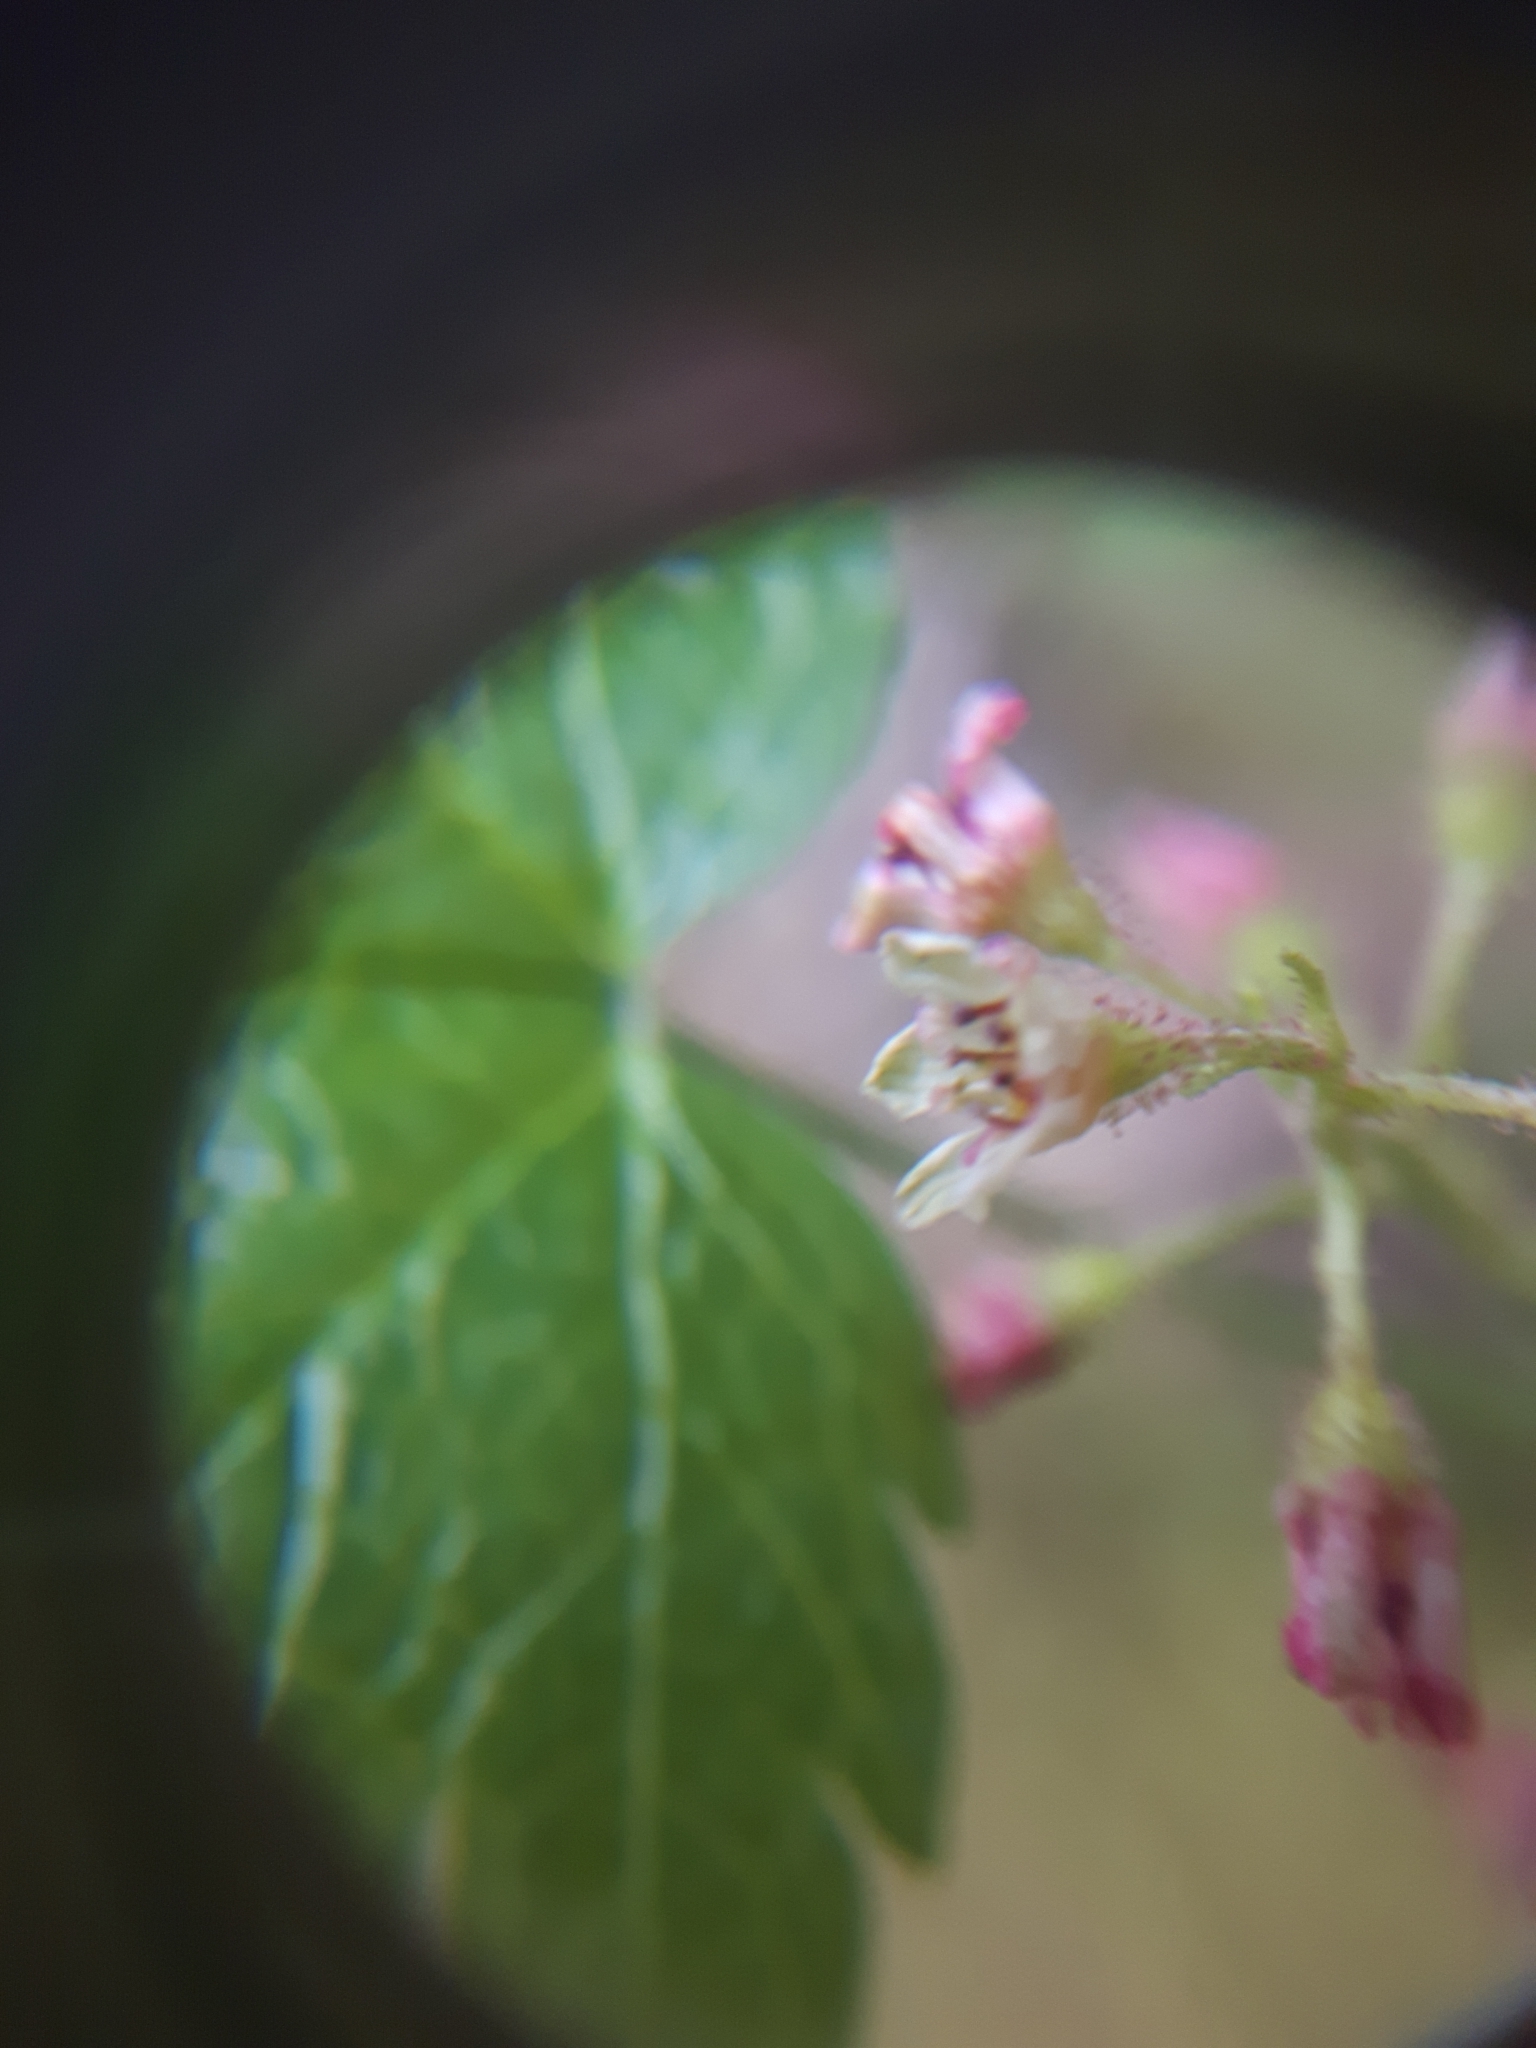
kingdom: Plantae
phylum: Tracheophyta
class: Magnoliopsida
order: Saxifragales
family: Grossulariaceae
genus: Ribes
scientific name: Ribes glandulosum
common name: Skunk currant
